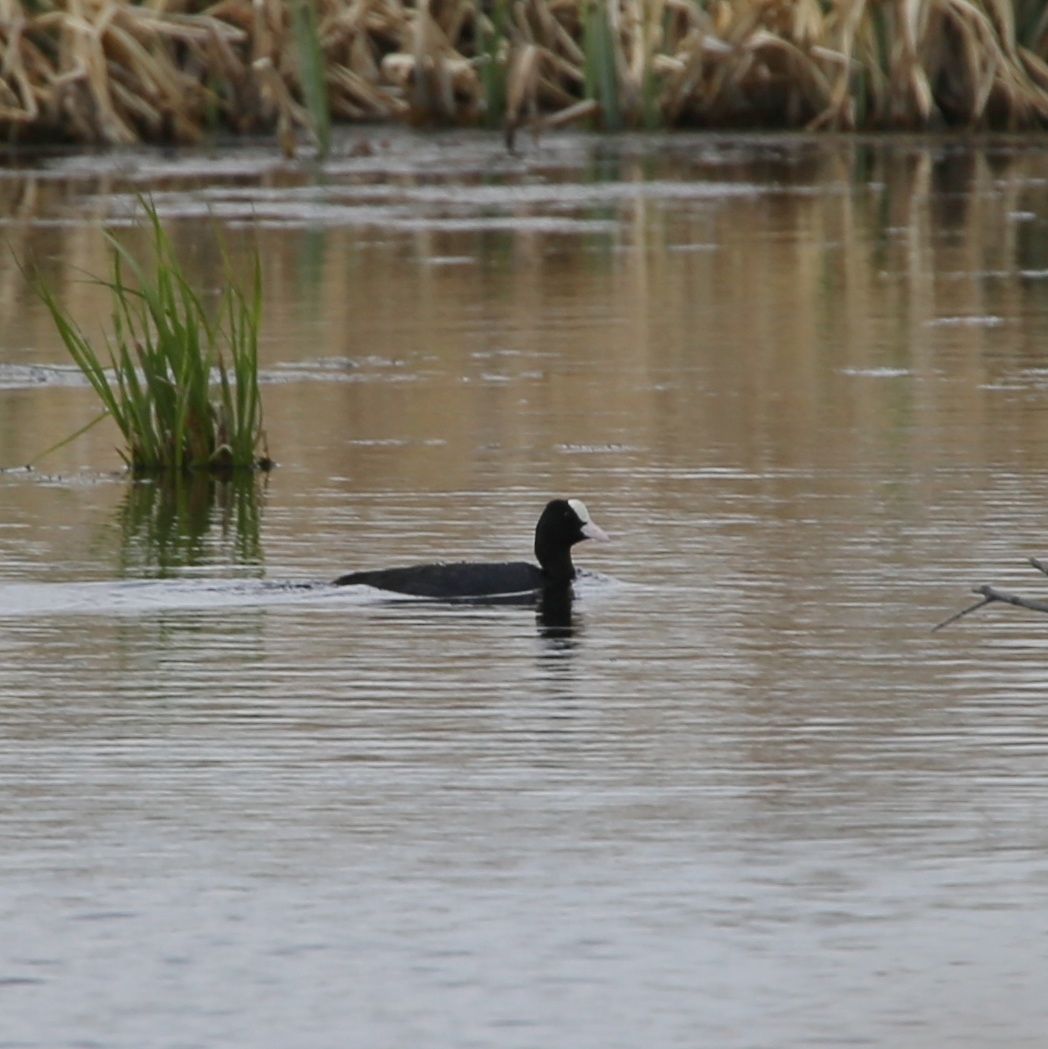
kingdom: Animalia
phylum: Chordata
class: Aves
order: Gruiformes
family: Rallidae
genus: Fulica
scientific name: Fulica atra
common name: Eurasian coot
